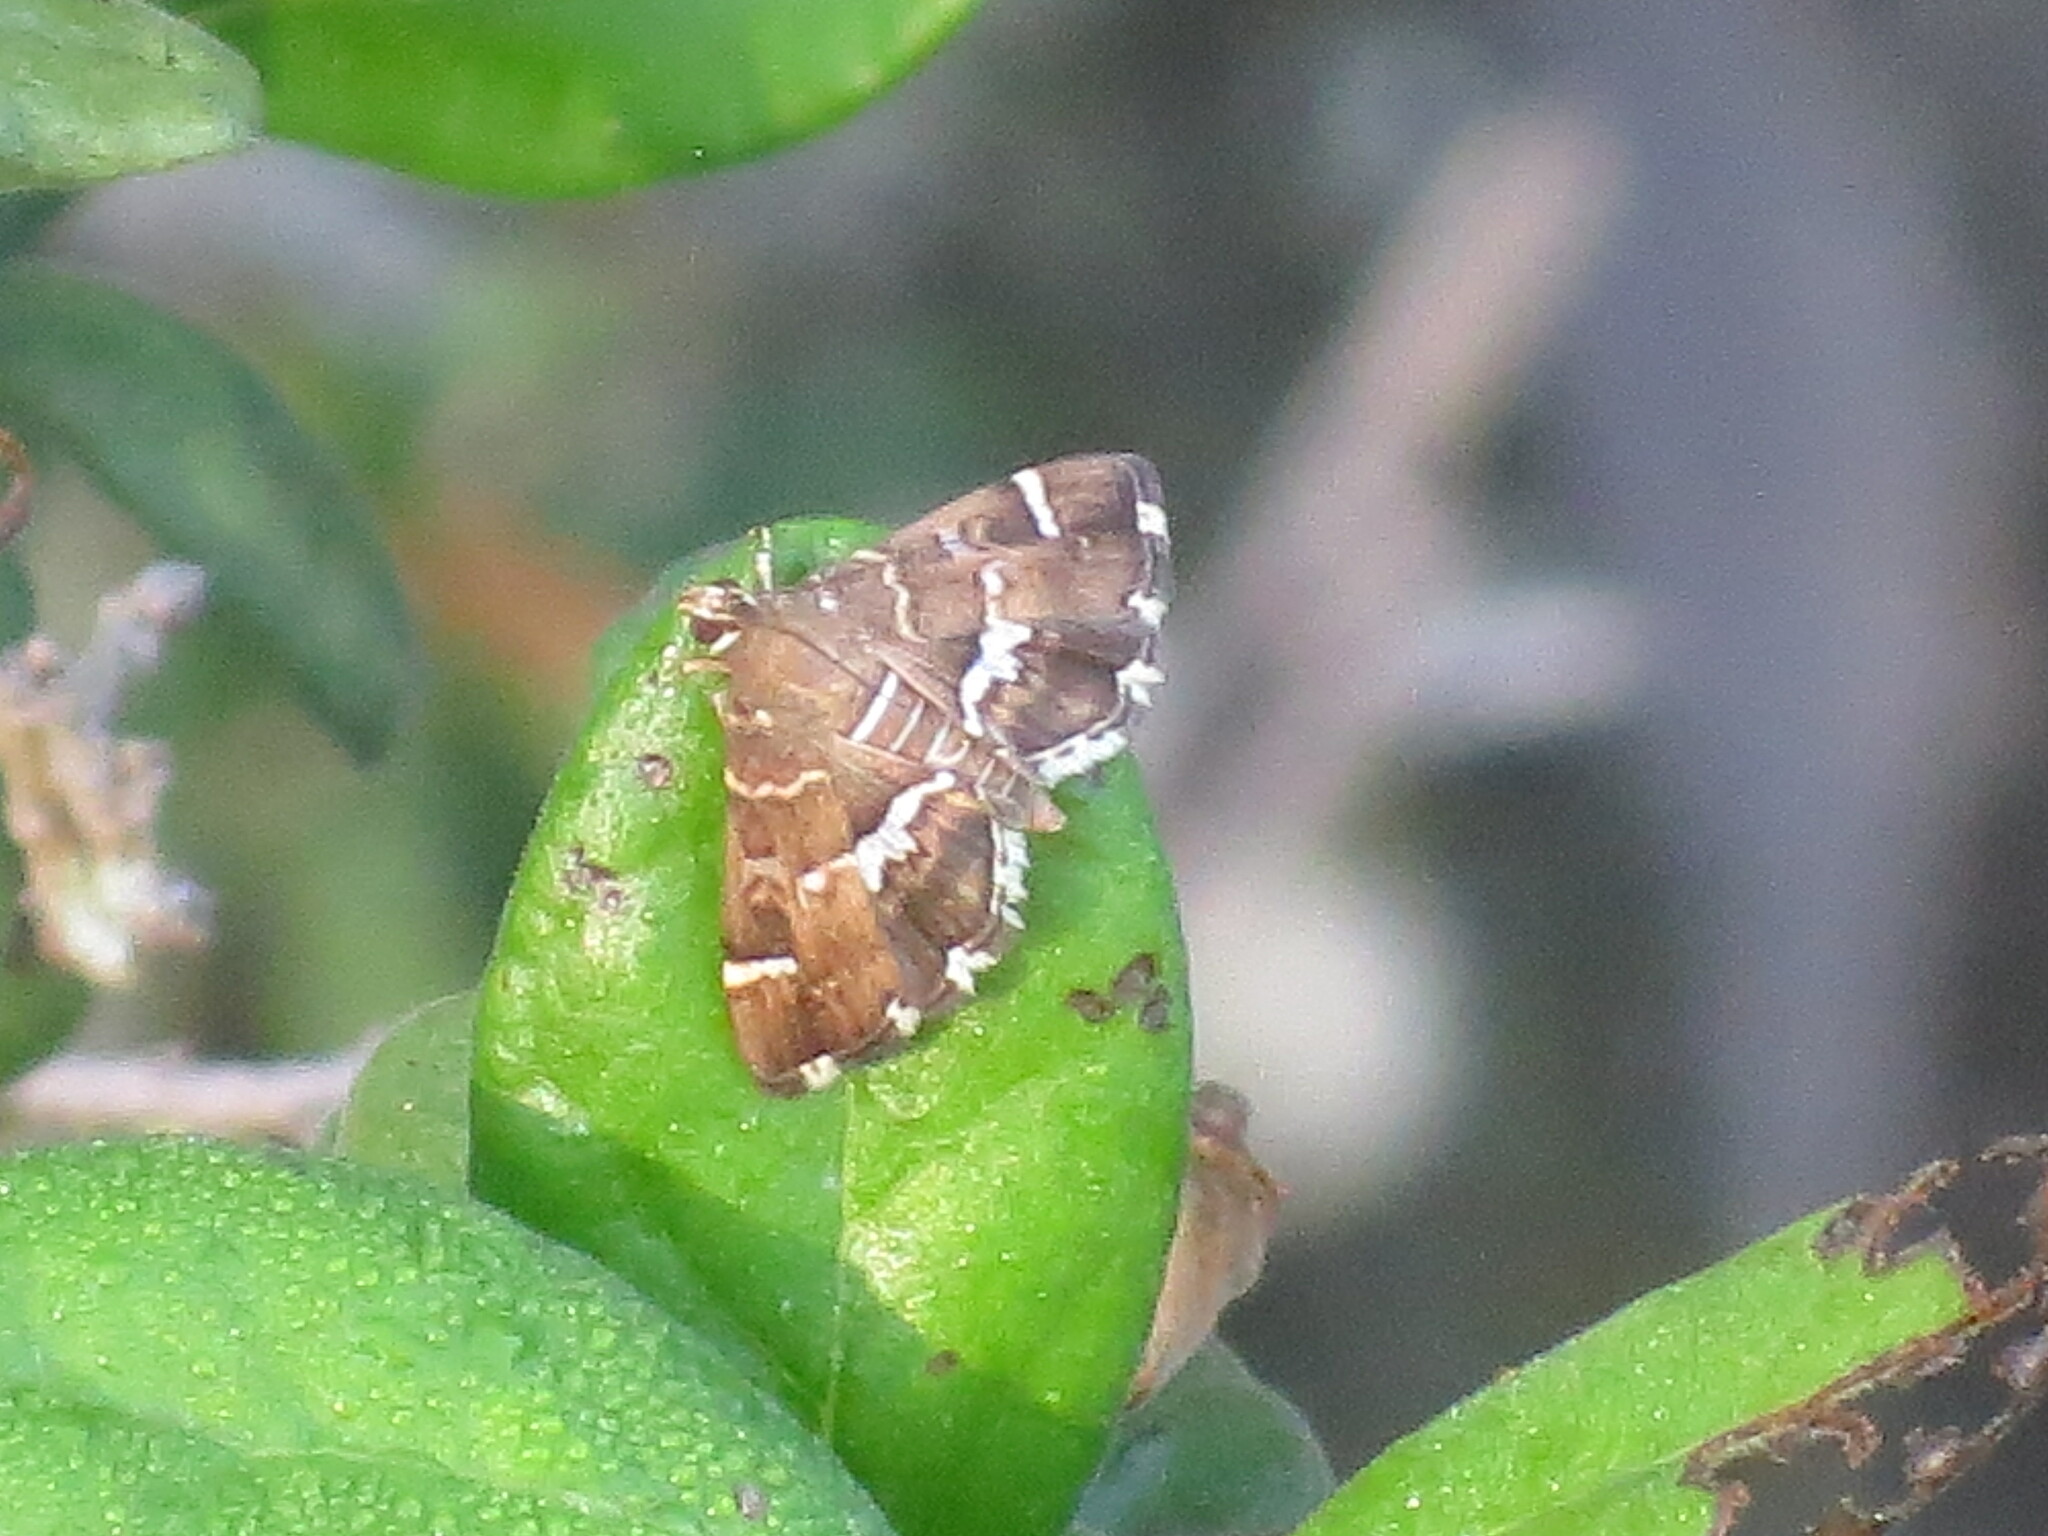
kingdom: Animalia
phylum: Arthropoda
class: Insecta
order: Lepidoptera
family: Crambidae
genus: Hymenia
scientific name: Hymenia perspectalis
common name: Spotted beet webworm
